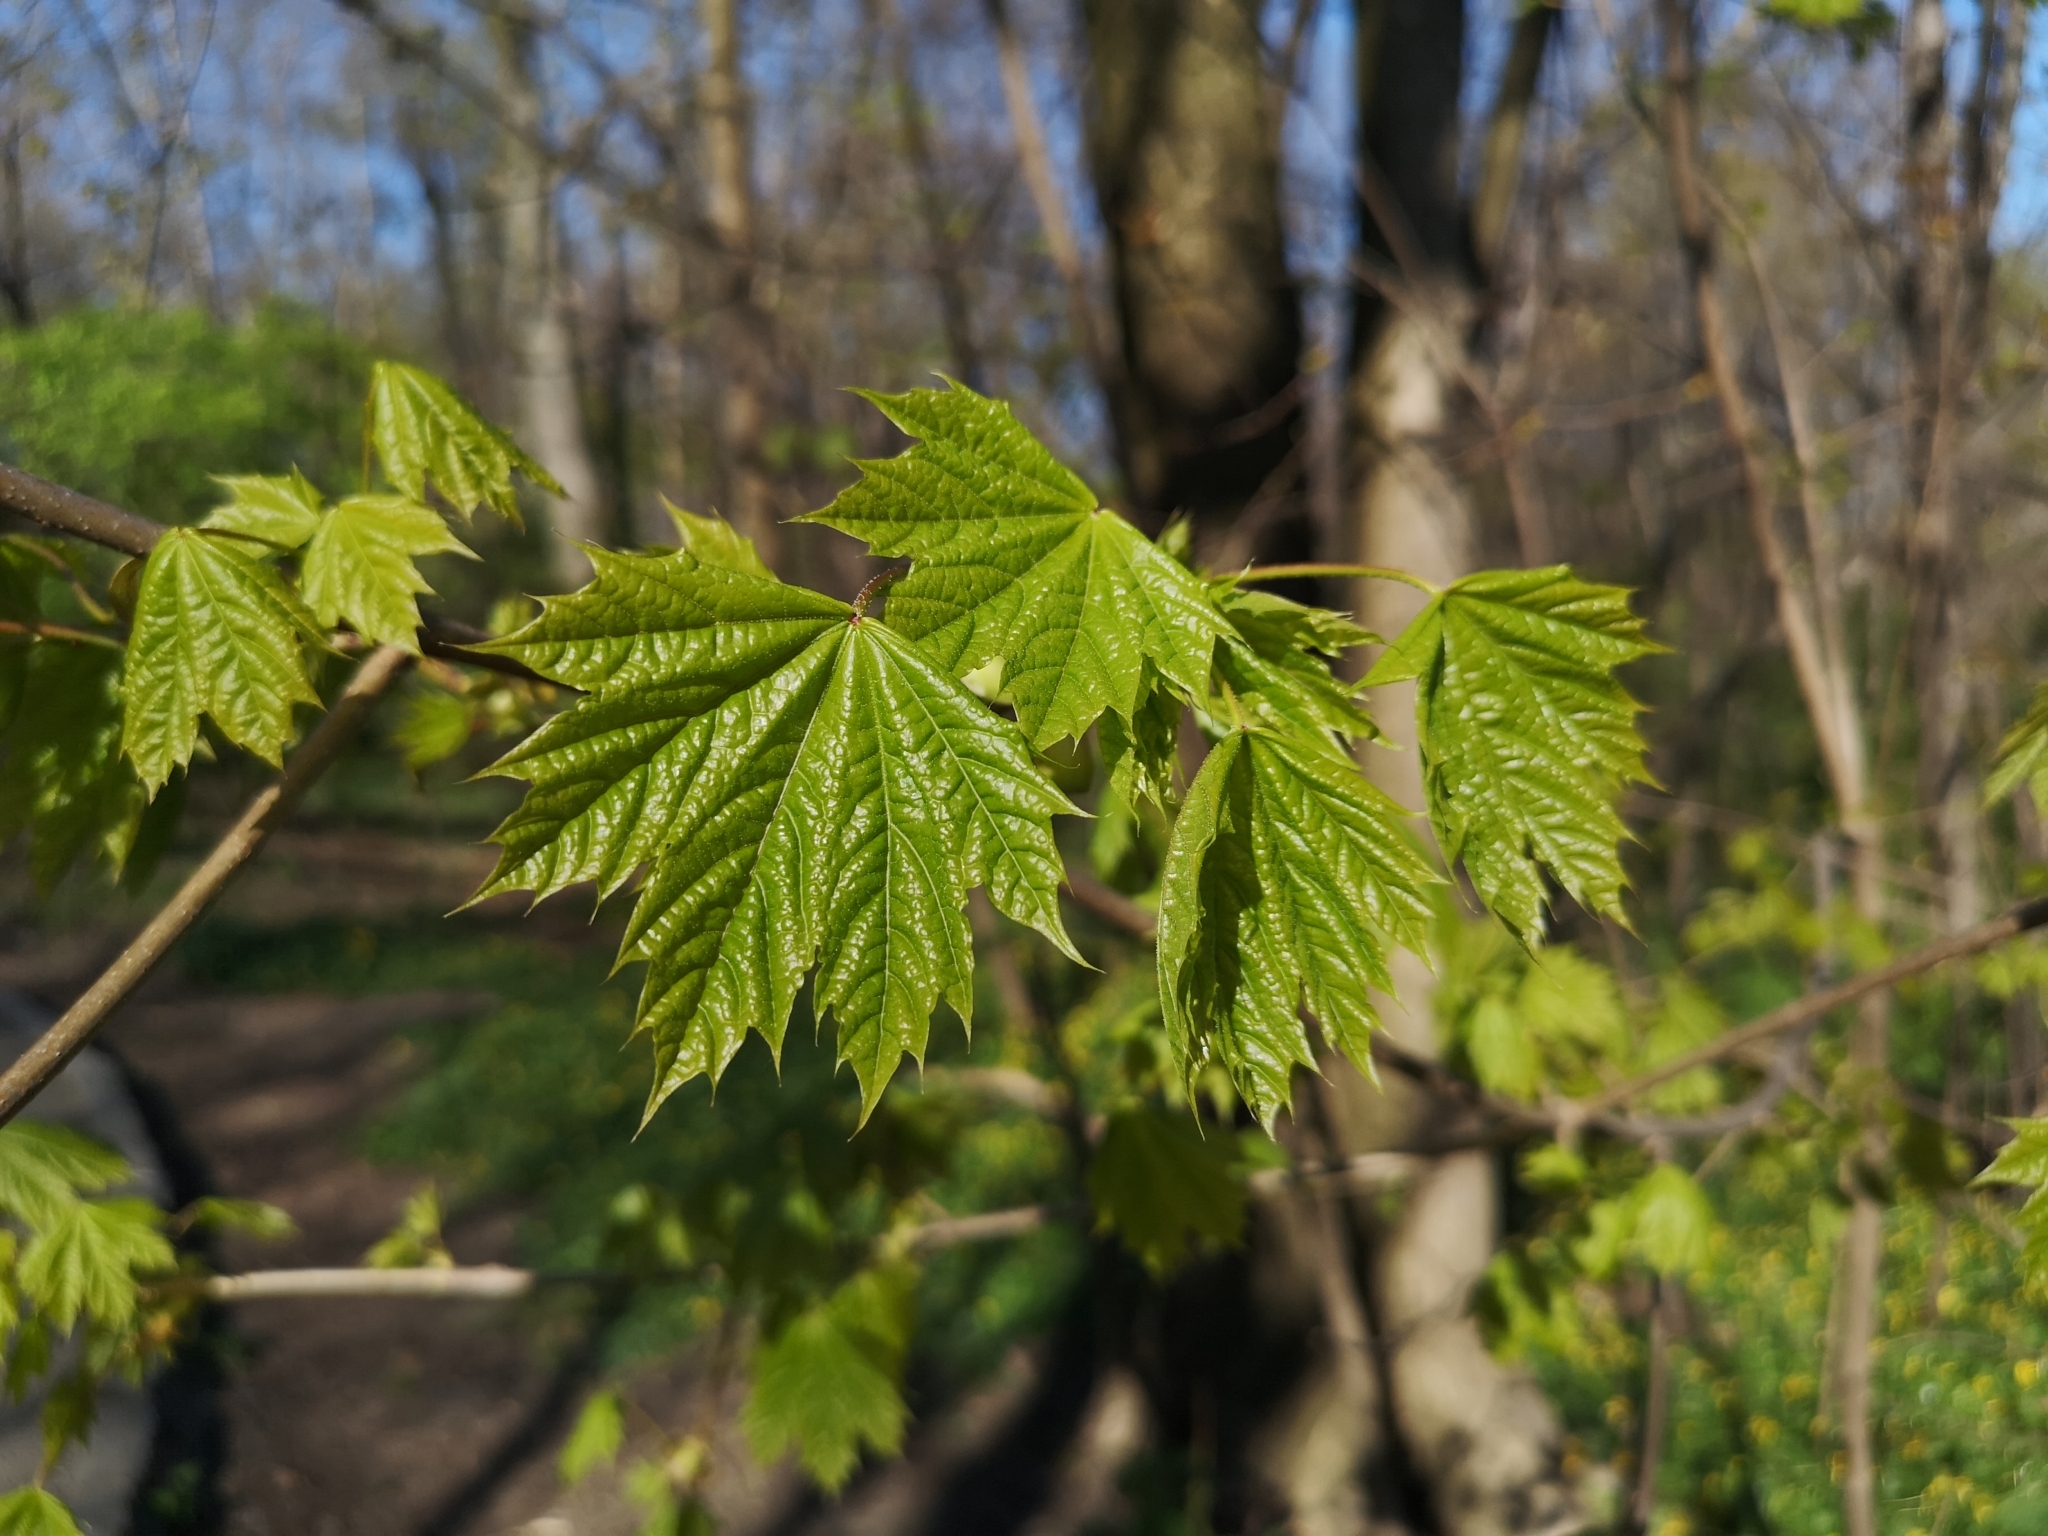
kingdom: Plantae
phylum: Tracheophyta
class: Magnoliopsida
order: Sapindales
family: Sapindaceae
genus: Acer
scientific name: Acer platanoides
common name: Norway maple
